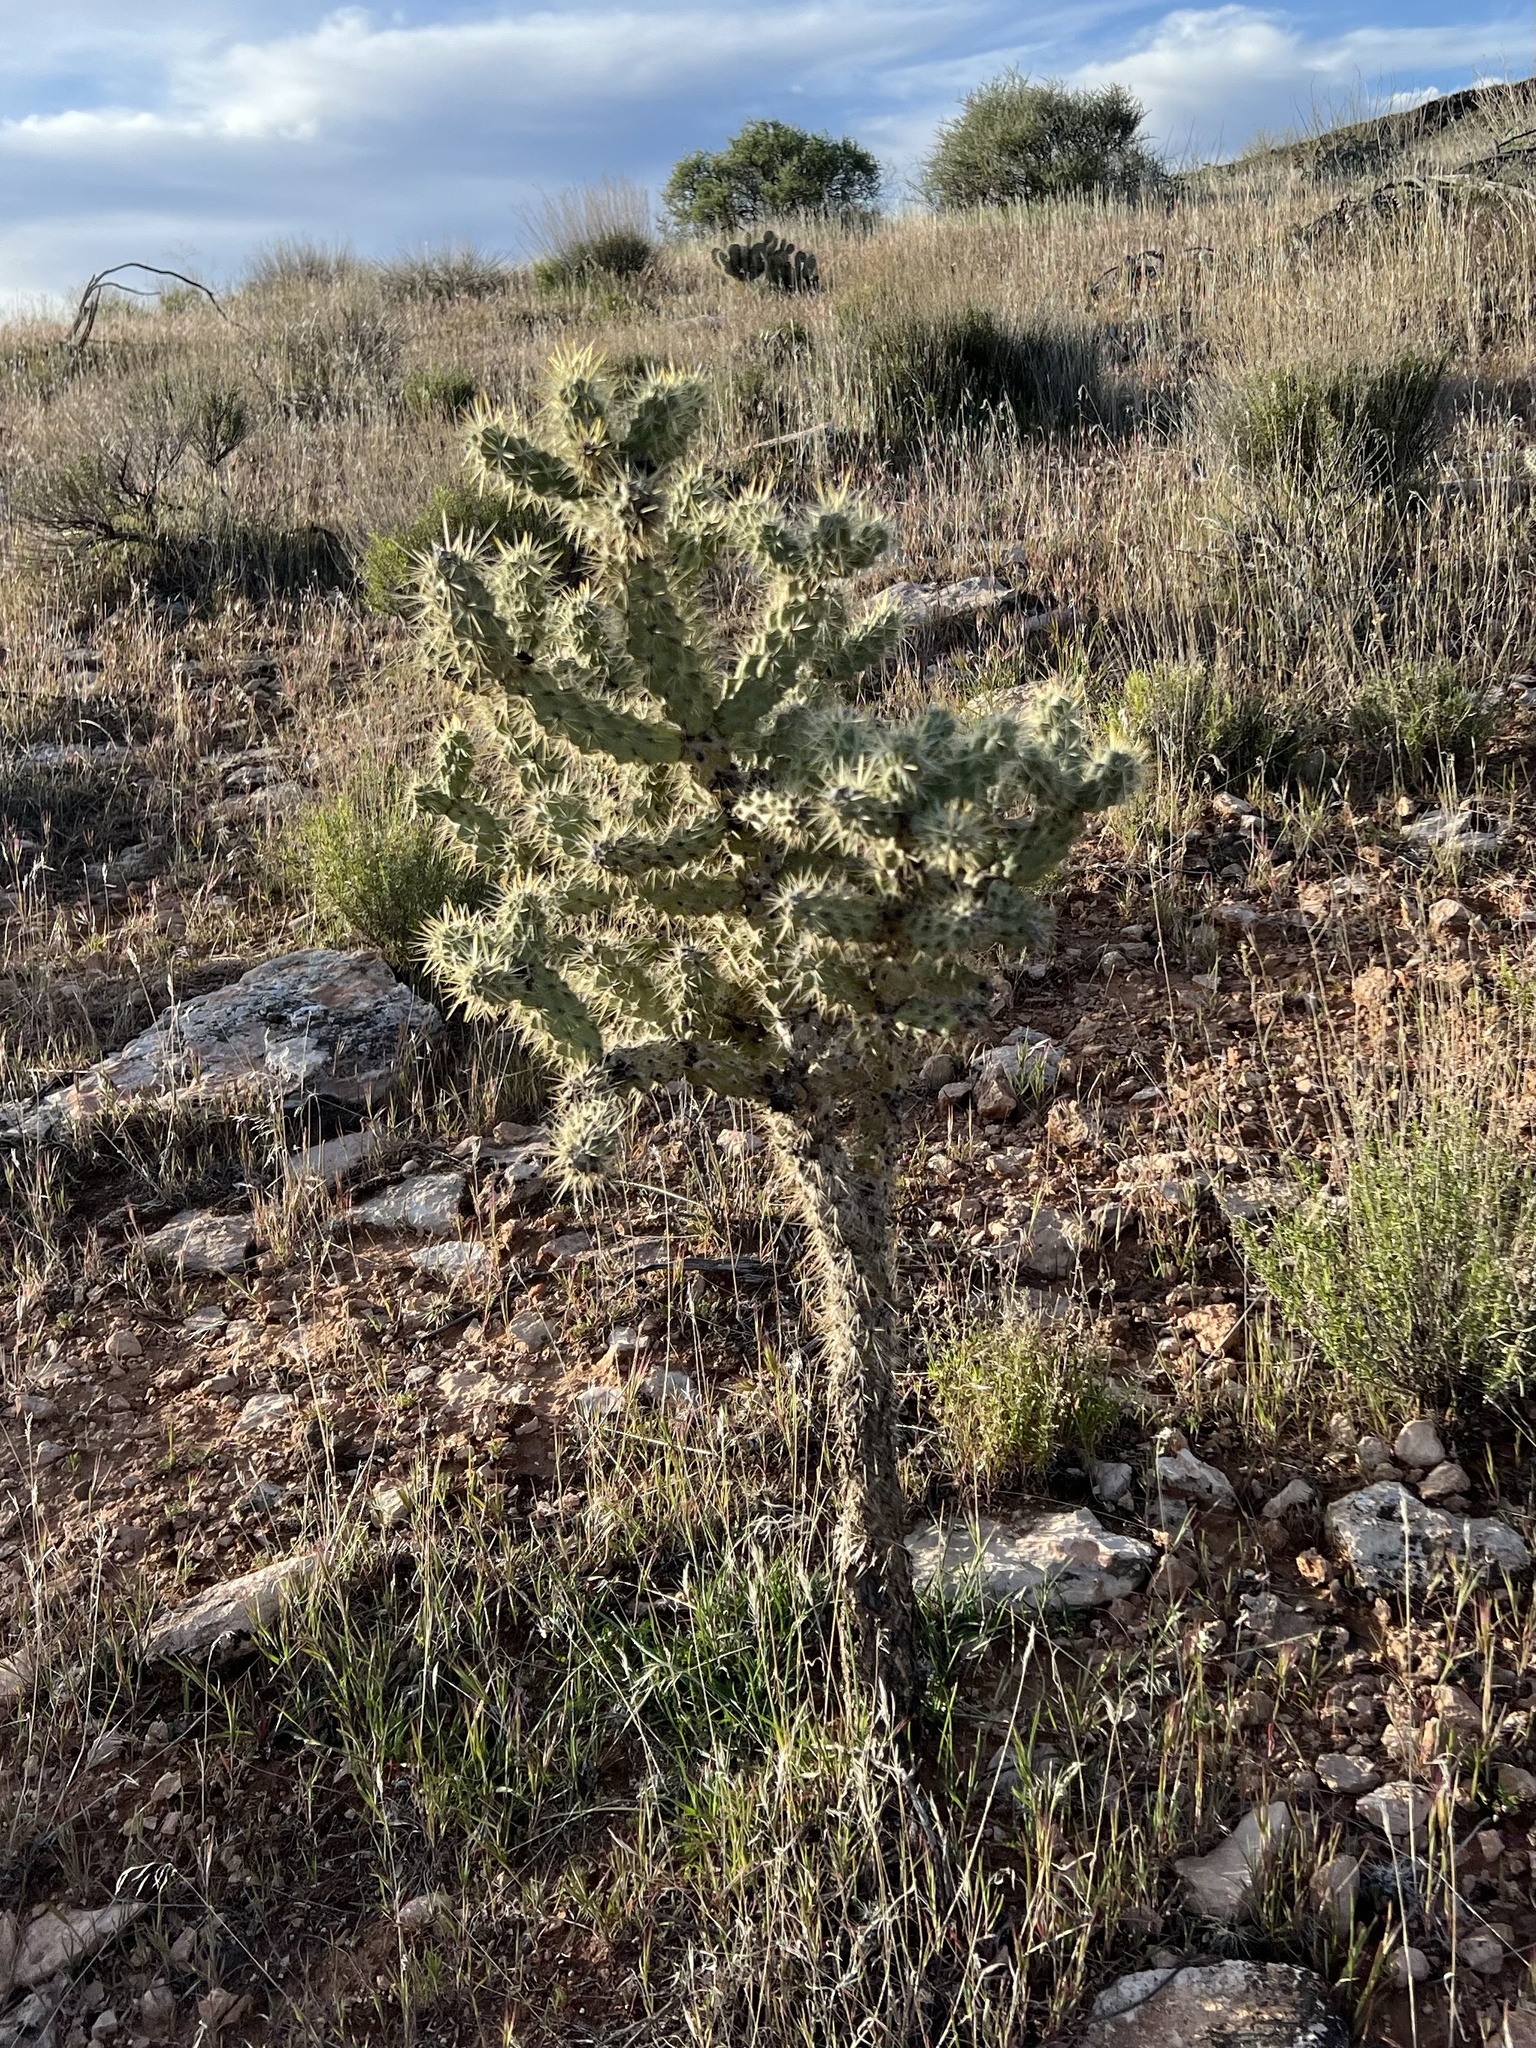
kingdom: Plantae
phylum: Tracheophyta
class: Magnoliopsida
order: Caryophyllales
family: Cactaceae
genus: Cylindropuntia
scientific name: Cylindropuntia echinocarpa
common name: Ground cholla
